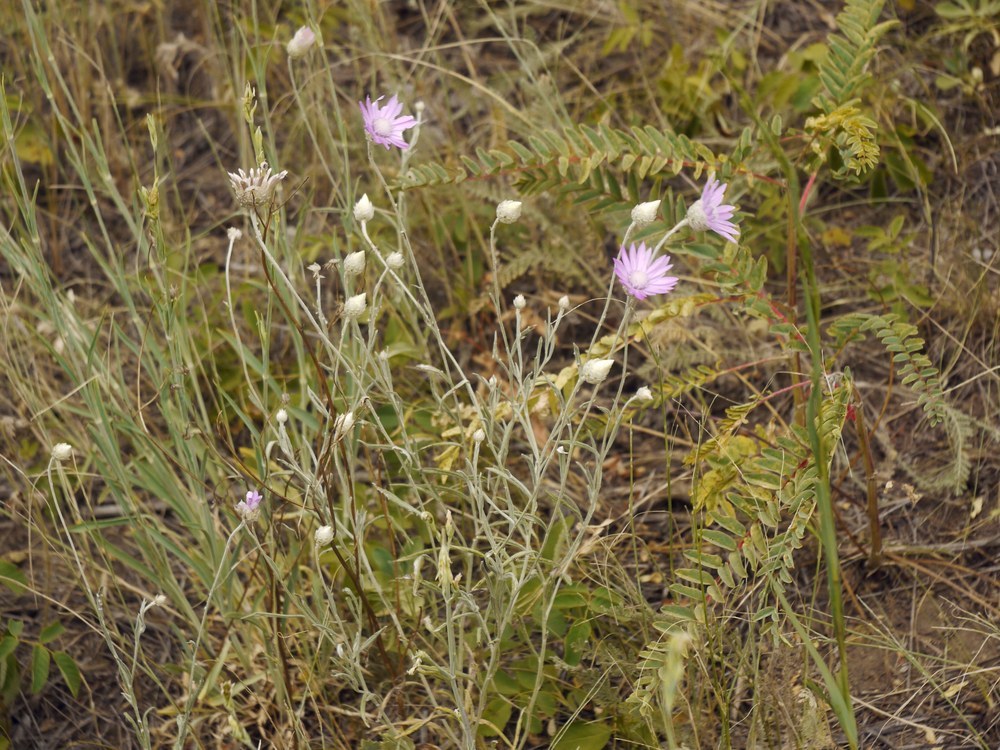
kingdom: Plantae
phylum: Tracheophyta
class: Magnoliopsida
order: Asterales
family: Asteraceae
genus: Xeranthemum
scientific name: Xeranthemum annuum
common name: Immortelle
